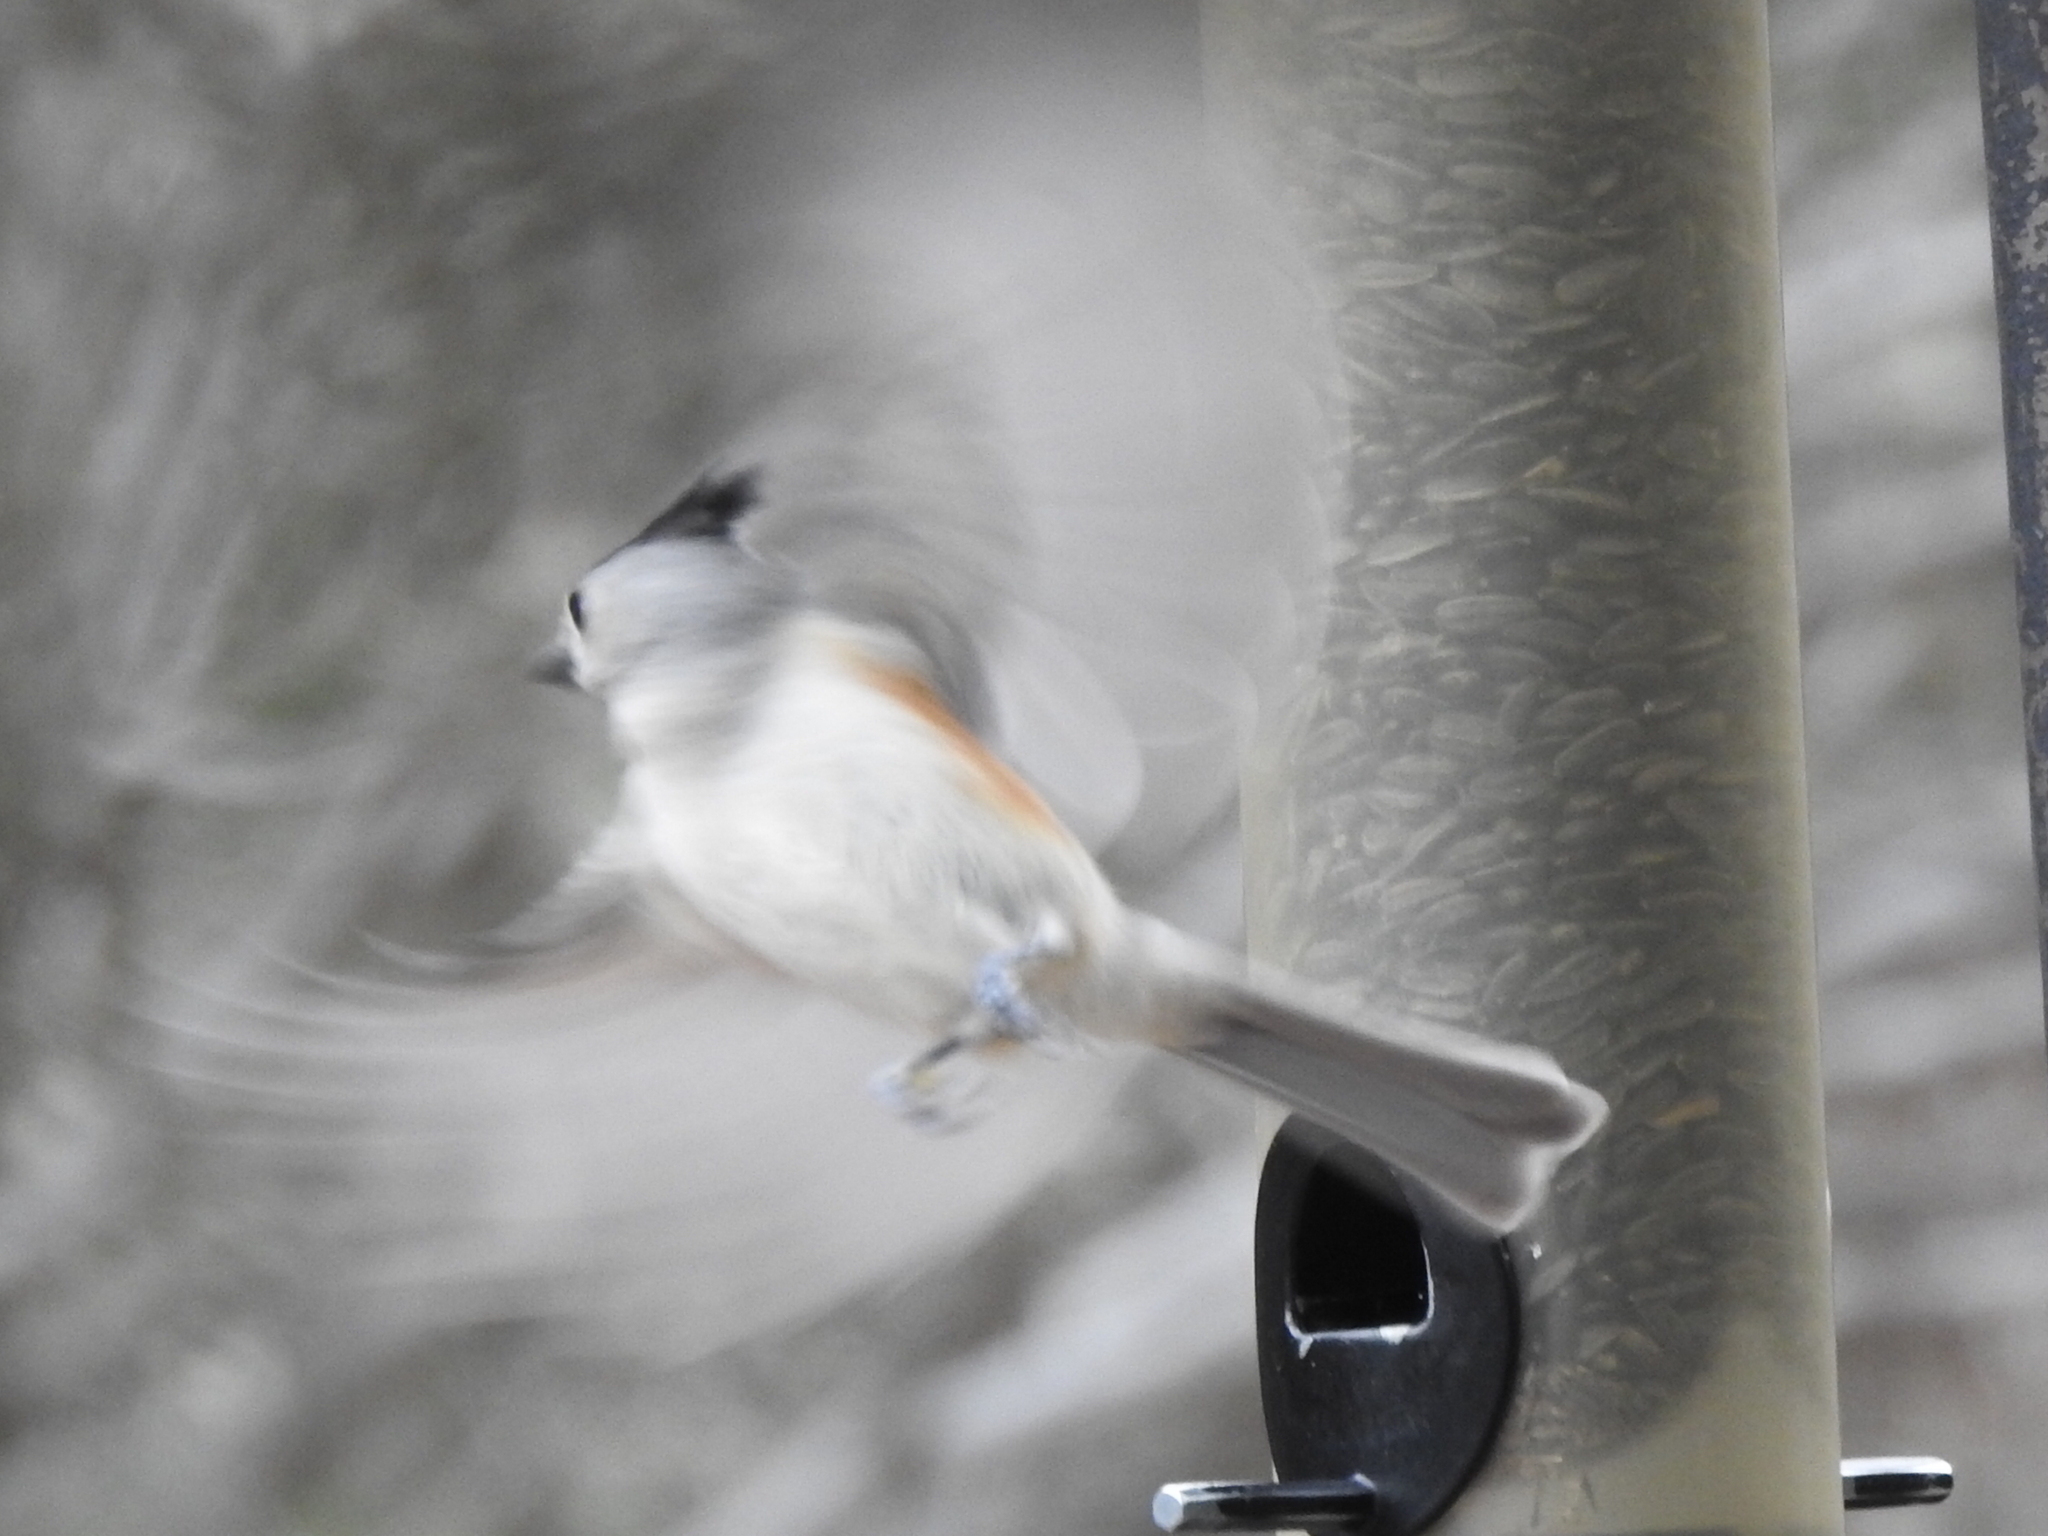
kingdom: Animalia
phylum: Chordata
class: Aves
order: Passeriformes
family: Paridae
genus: Baeolophus
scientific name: Baeolophus atricristatus
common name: Black-crested titmouse
